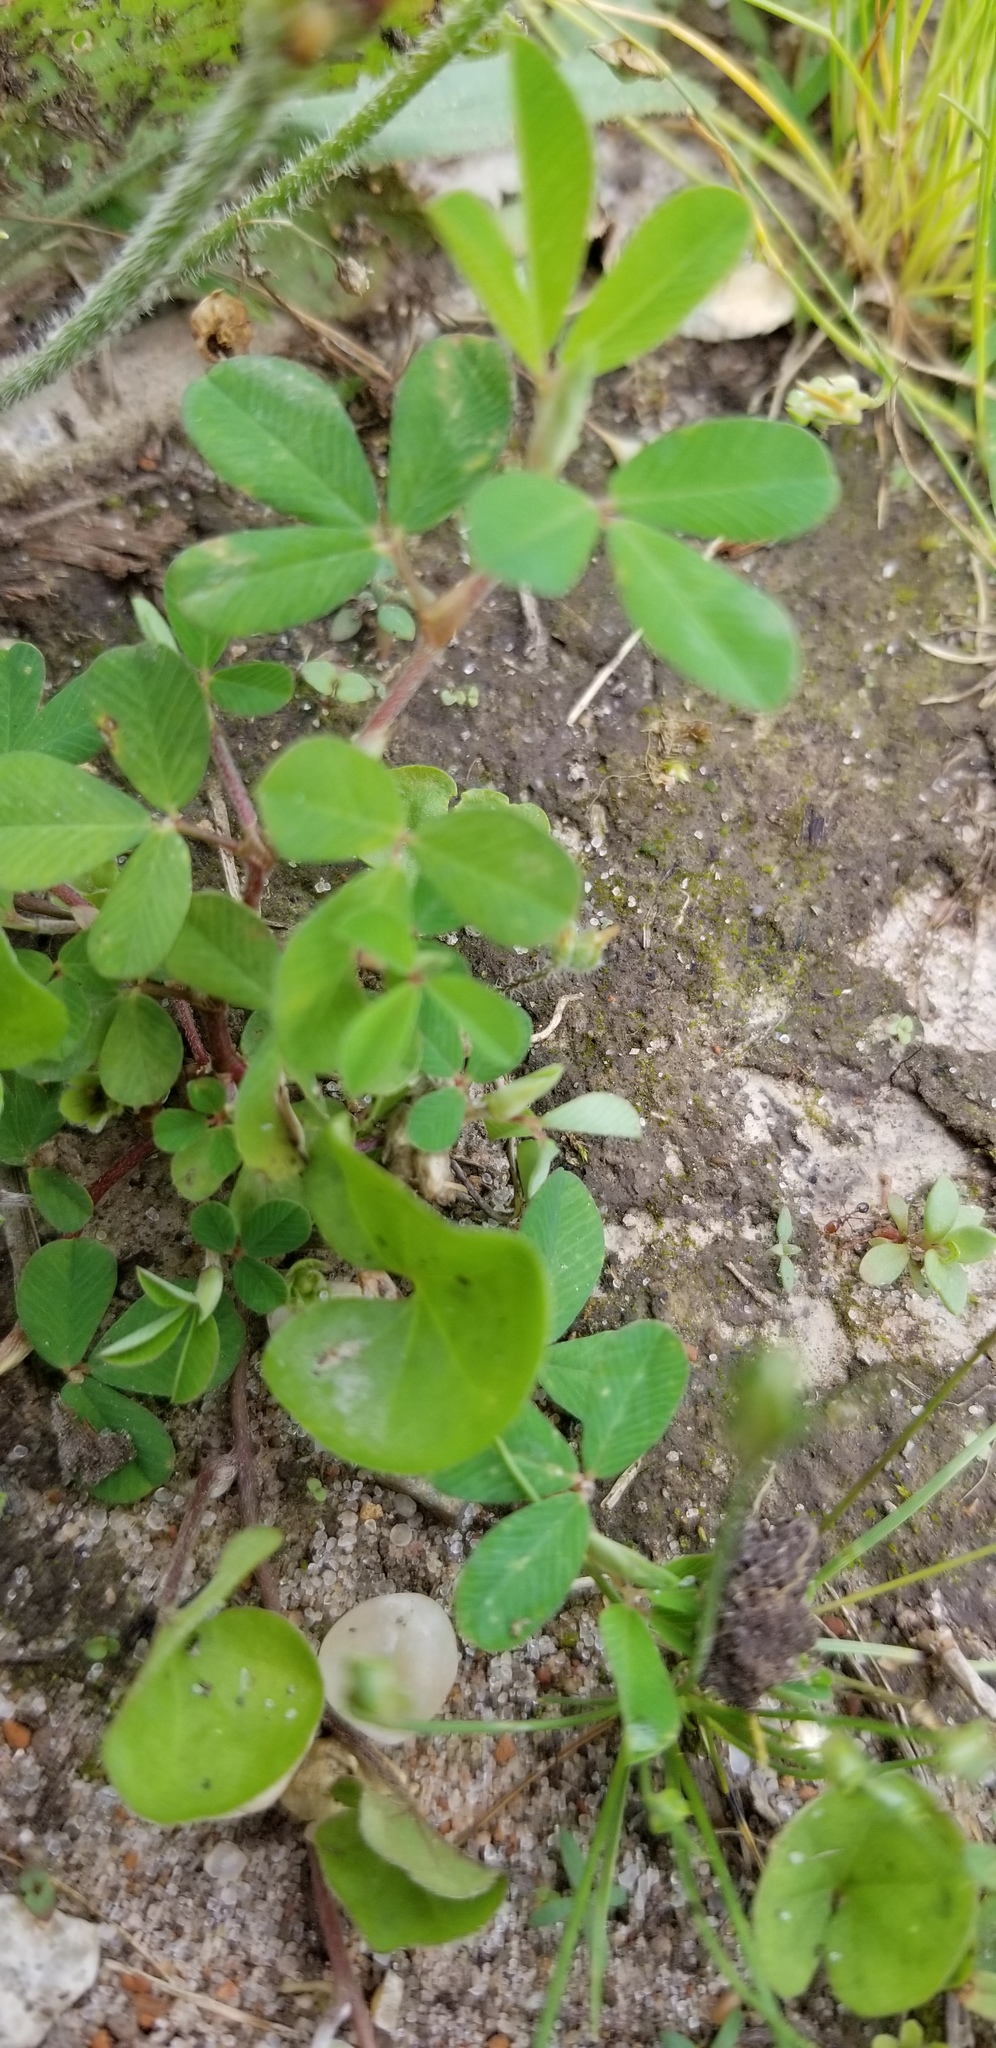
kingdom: Plantae
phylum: Tracheophyta
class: Magnoliopsida
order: Fabales
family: Fabaceae
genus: Kummerowia
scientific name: Kummerowia striata
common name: Japanese clover
